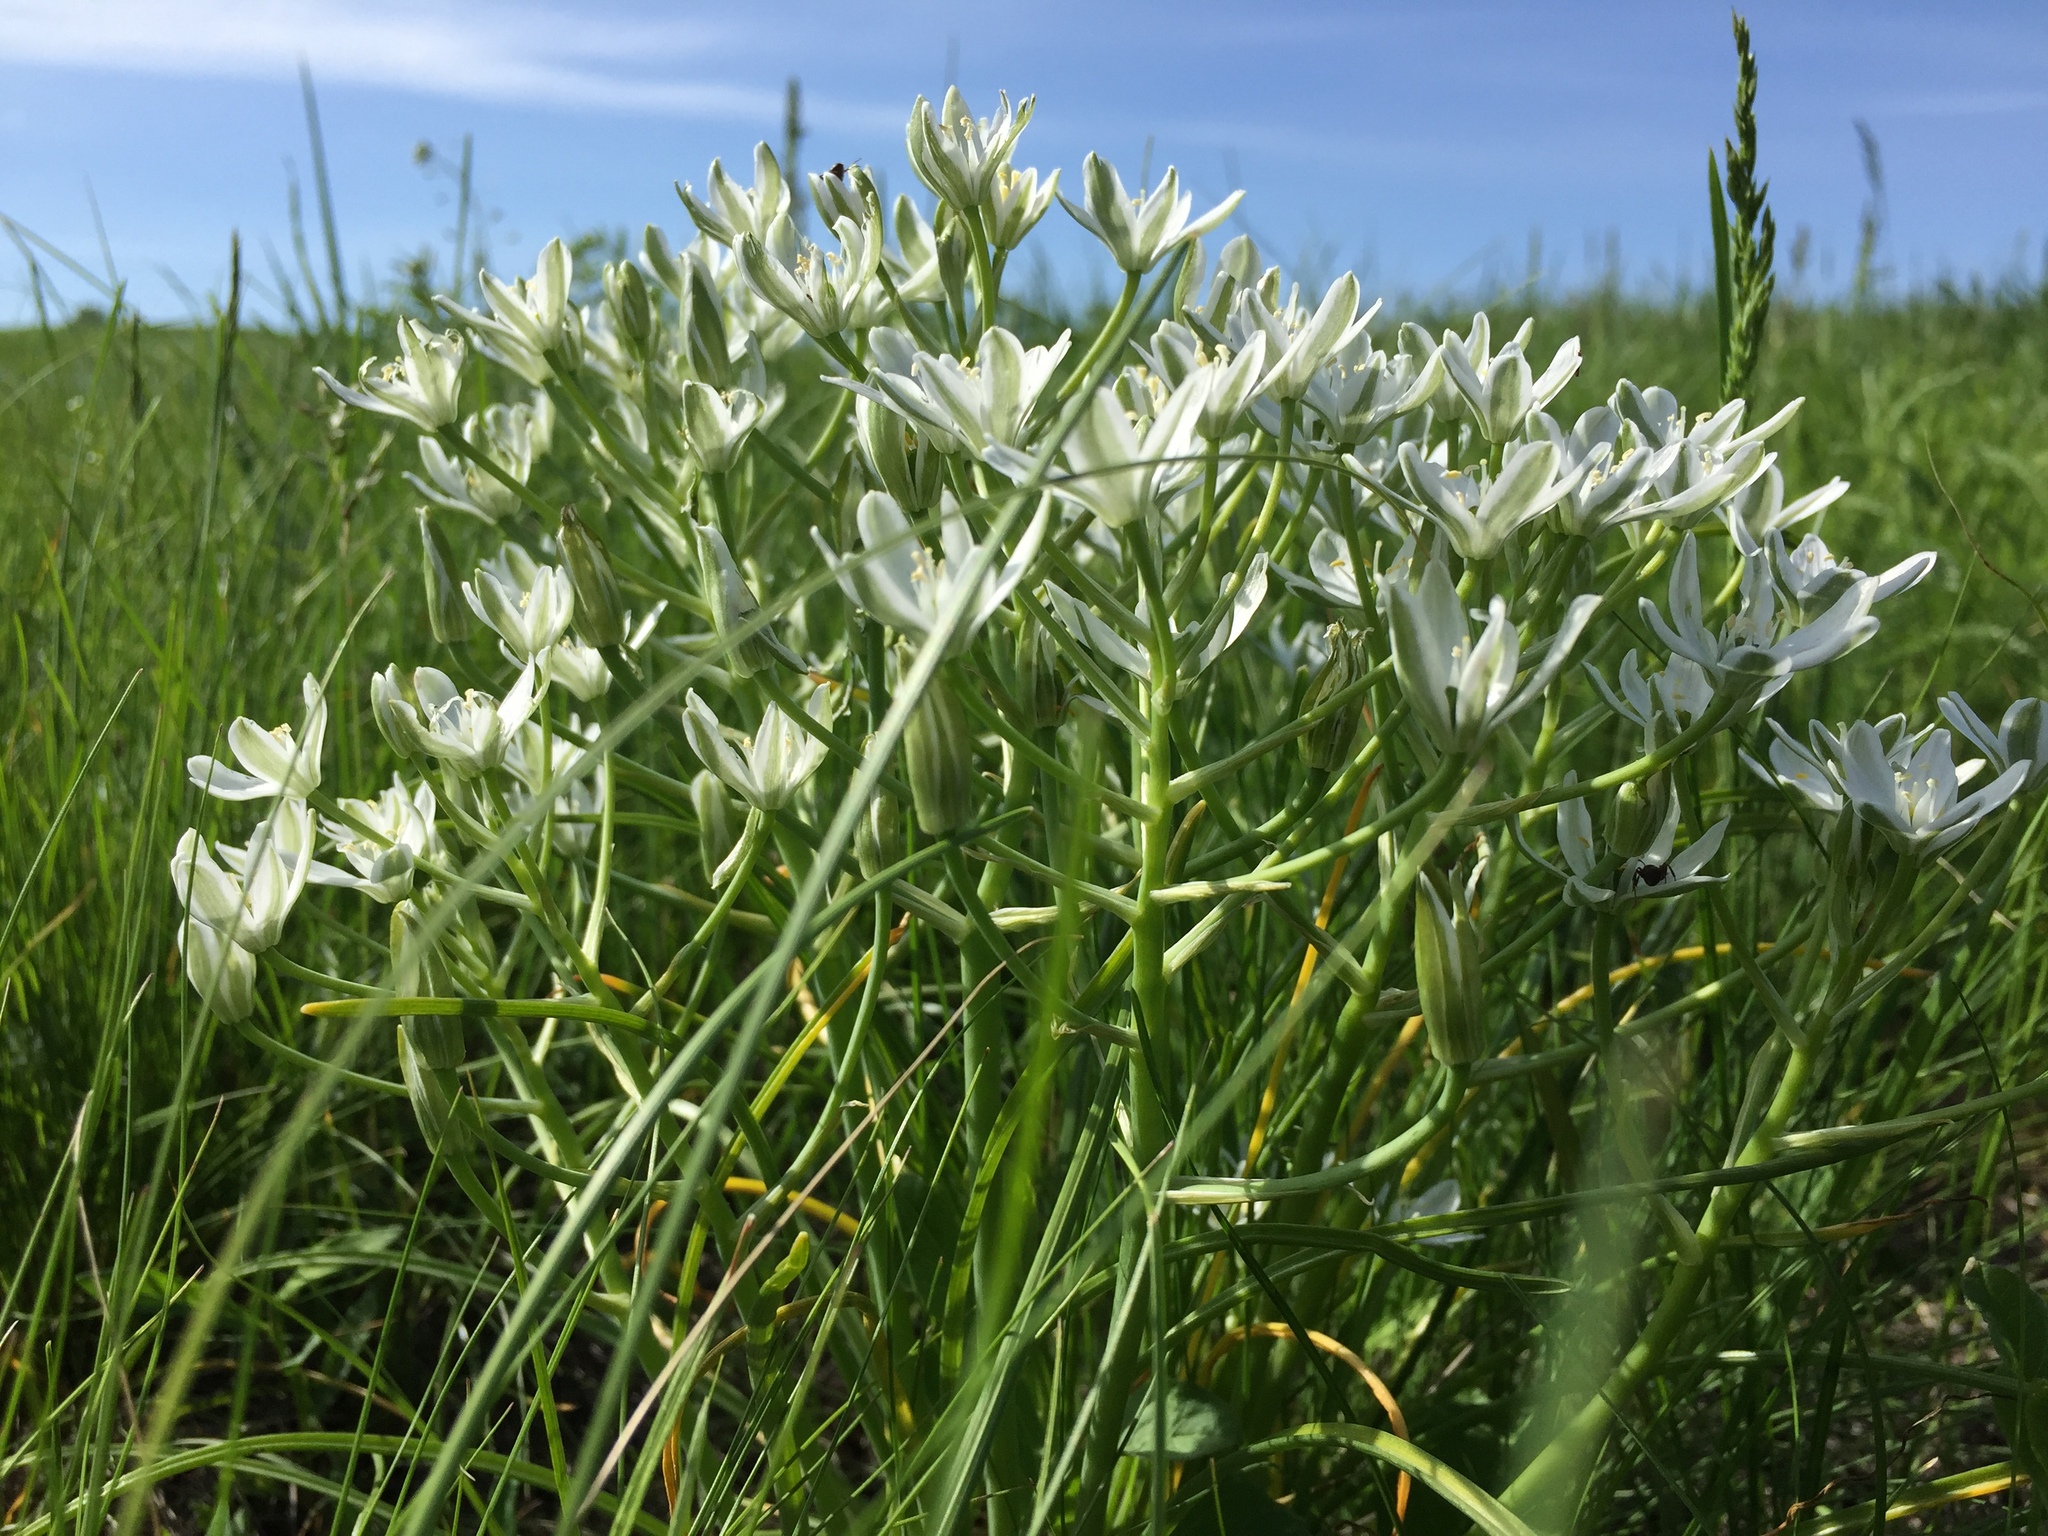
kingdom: Plantae
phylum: Tracheophyta
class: Liliopsida
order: Asparagales
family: Asparagaceae
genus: Ornithogalum
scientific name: Ornithogalum orthophyllum
